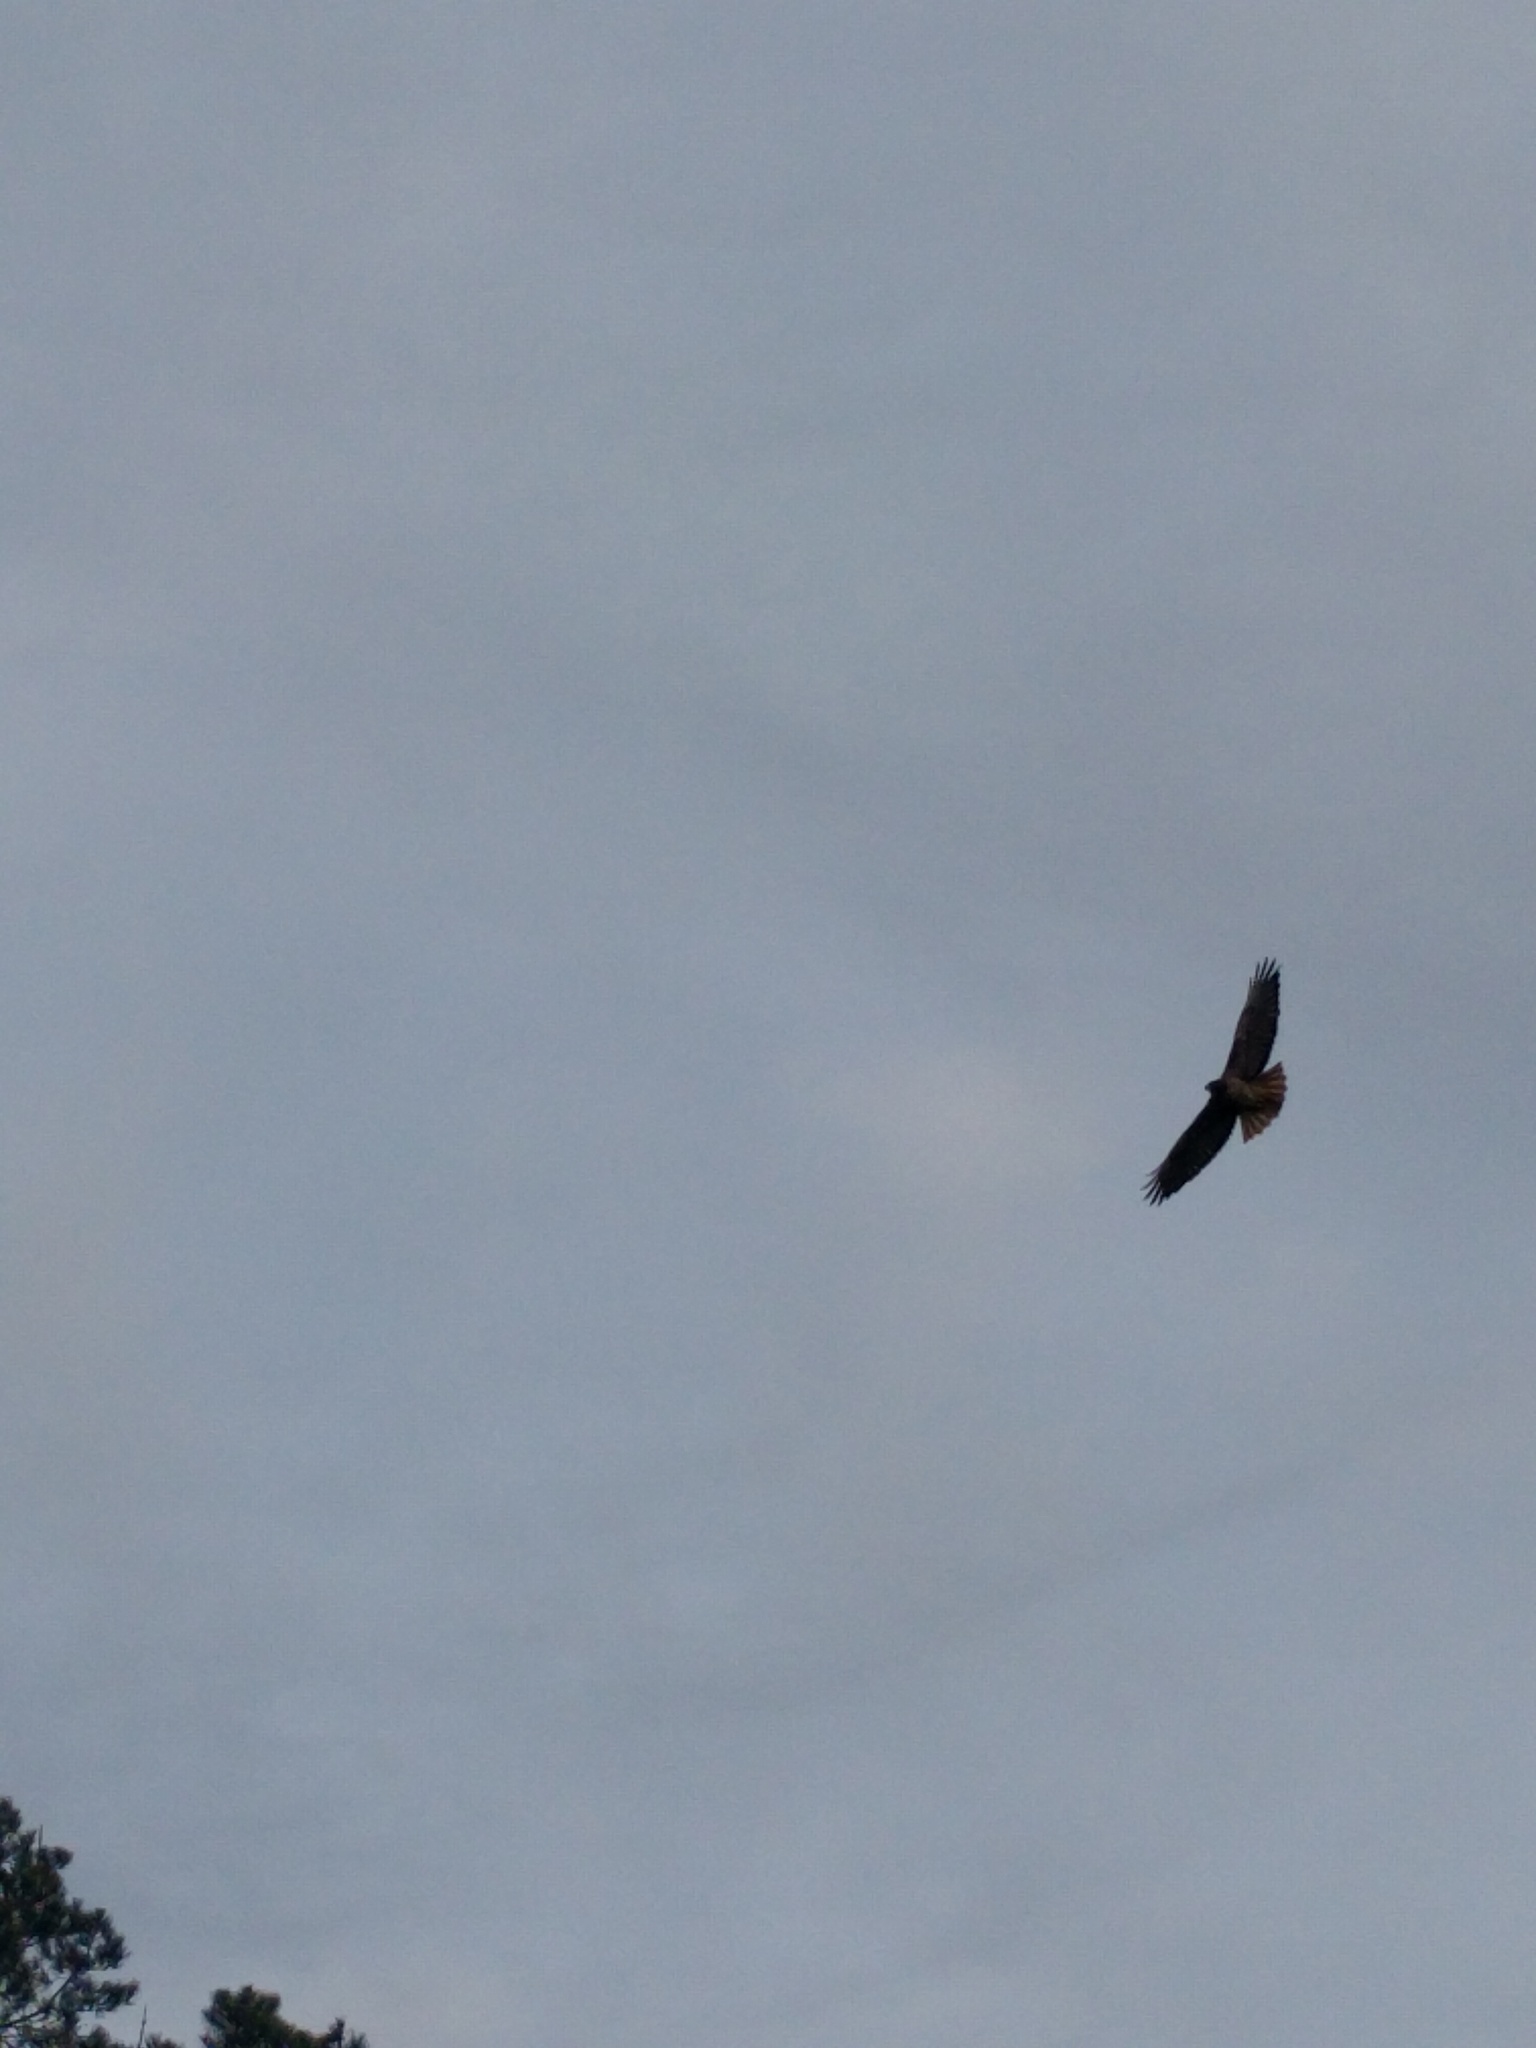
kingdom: Animalia
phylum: Chordata
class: Aves
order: Accipitriformes
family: Accipitridae
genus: Buteo
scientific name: Buteo jamaicensis
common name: Red-tailed hawk
